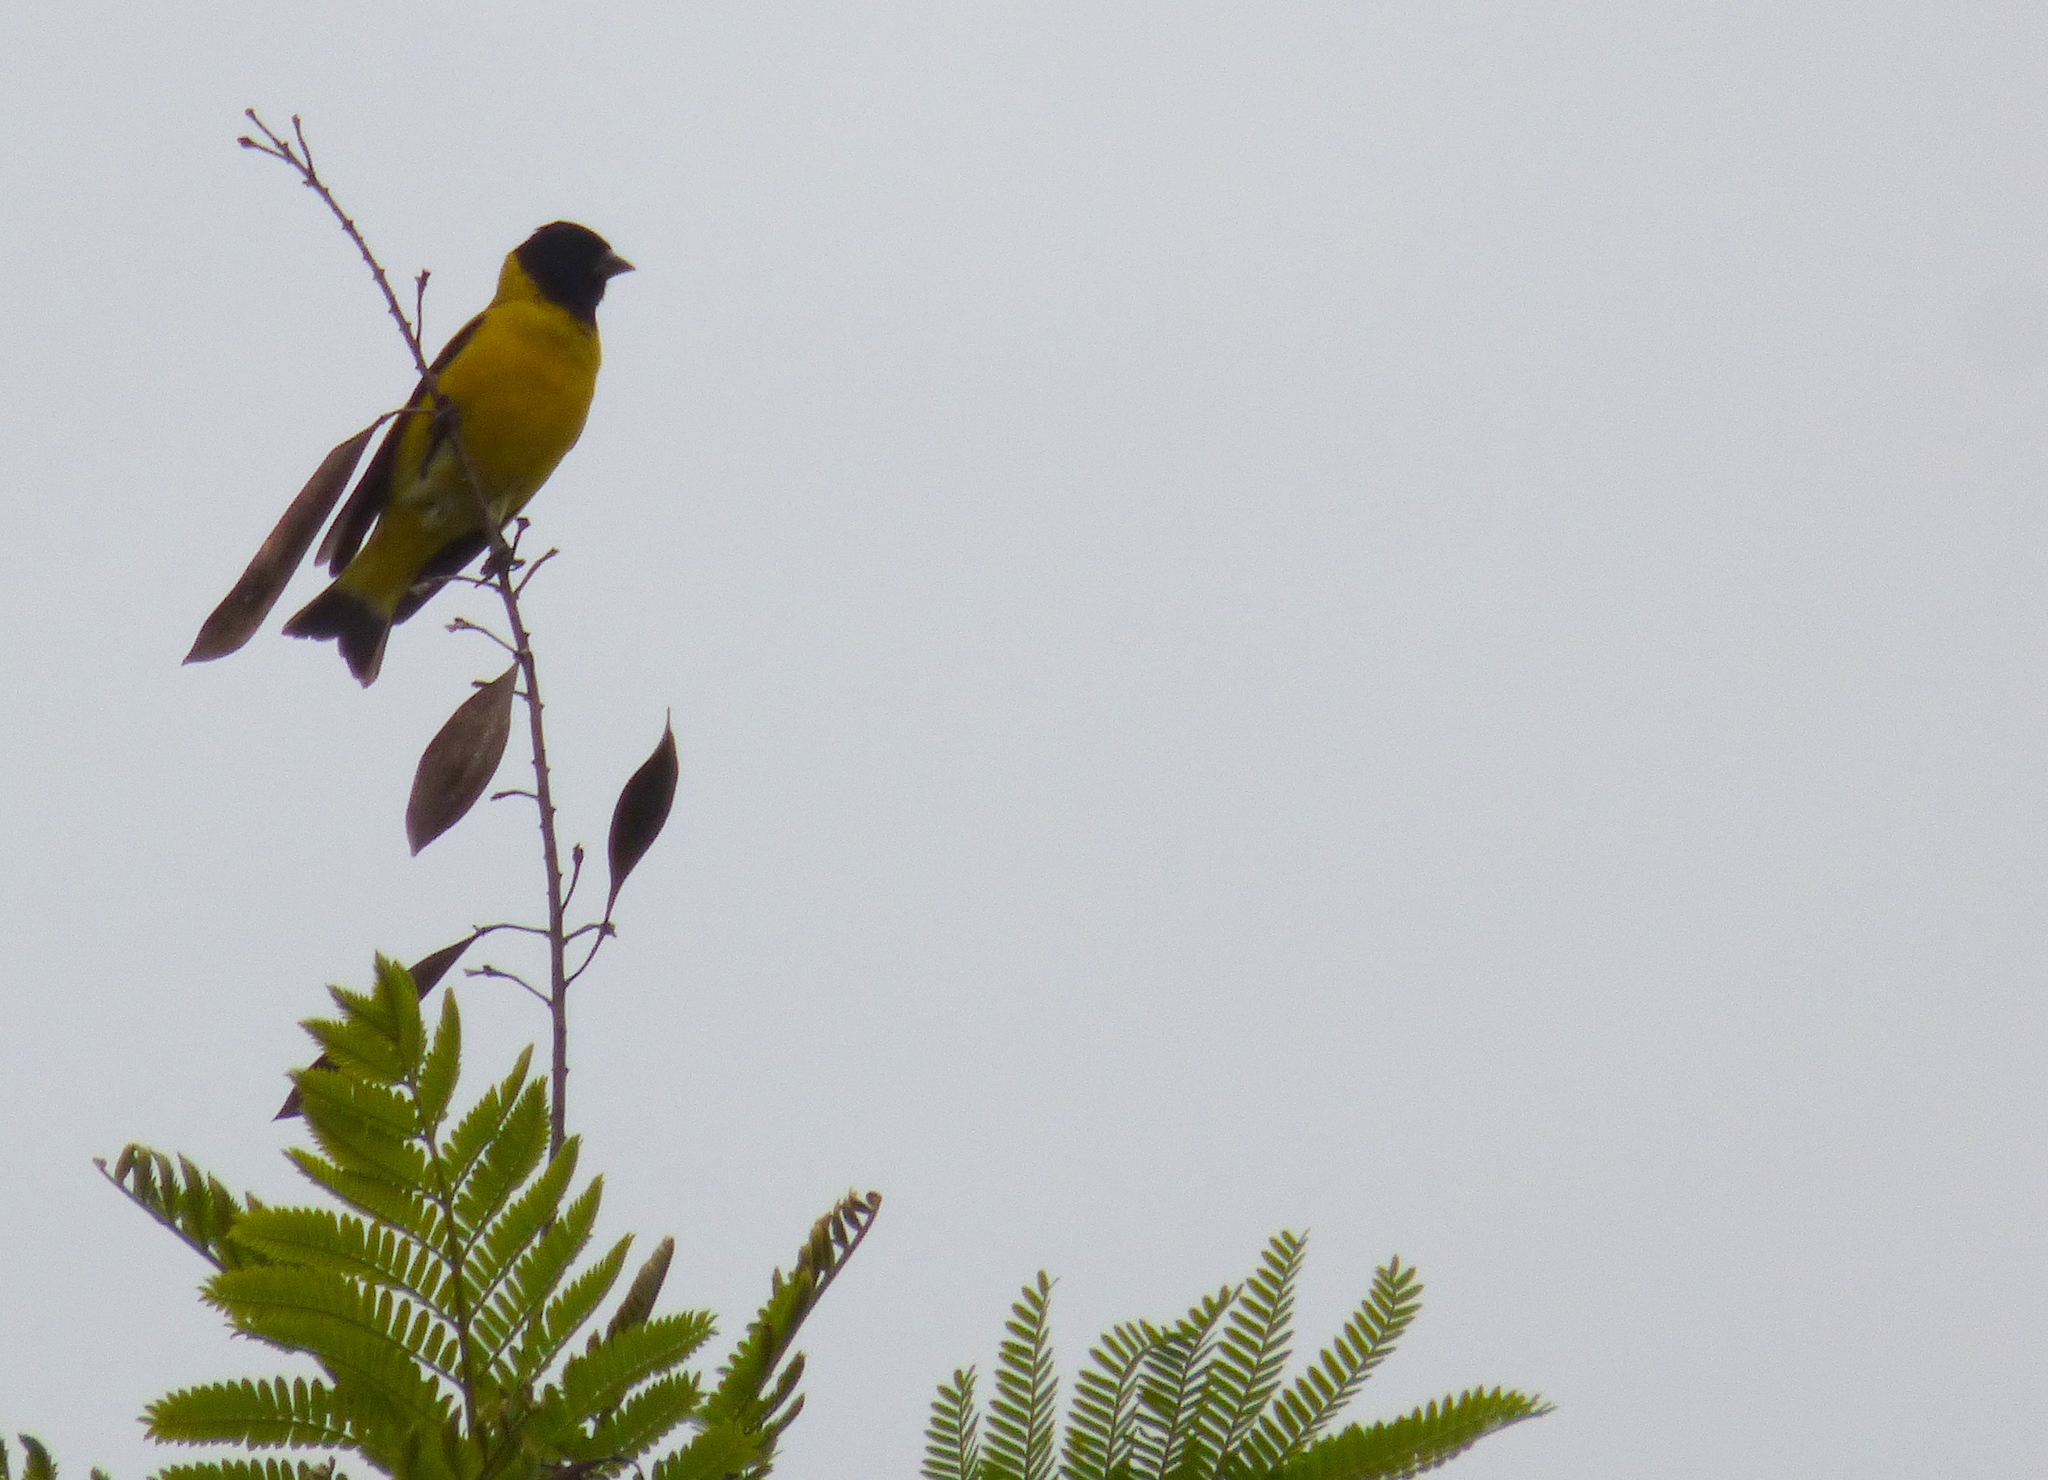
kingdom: Animalia
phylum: Chordata
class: Aves
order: Passeriformes
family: Fringillidae
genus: Spinus
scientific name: Spinus magellanicus
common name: Hooded siskin
